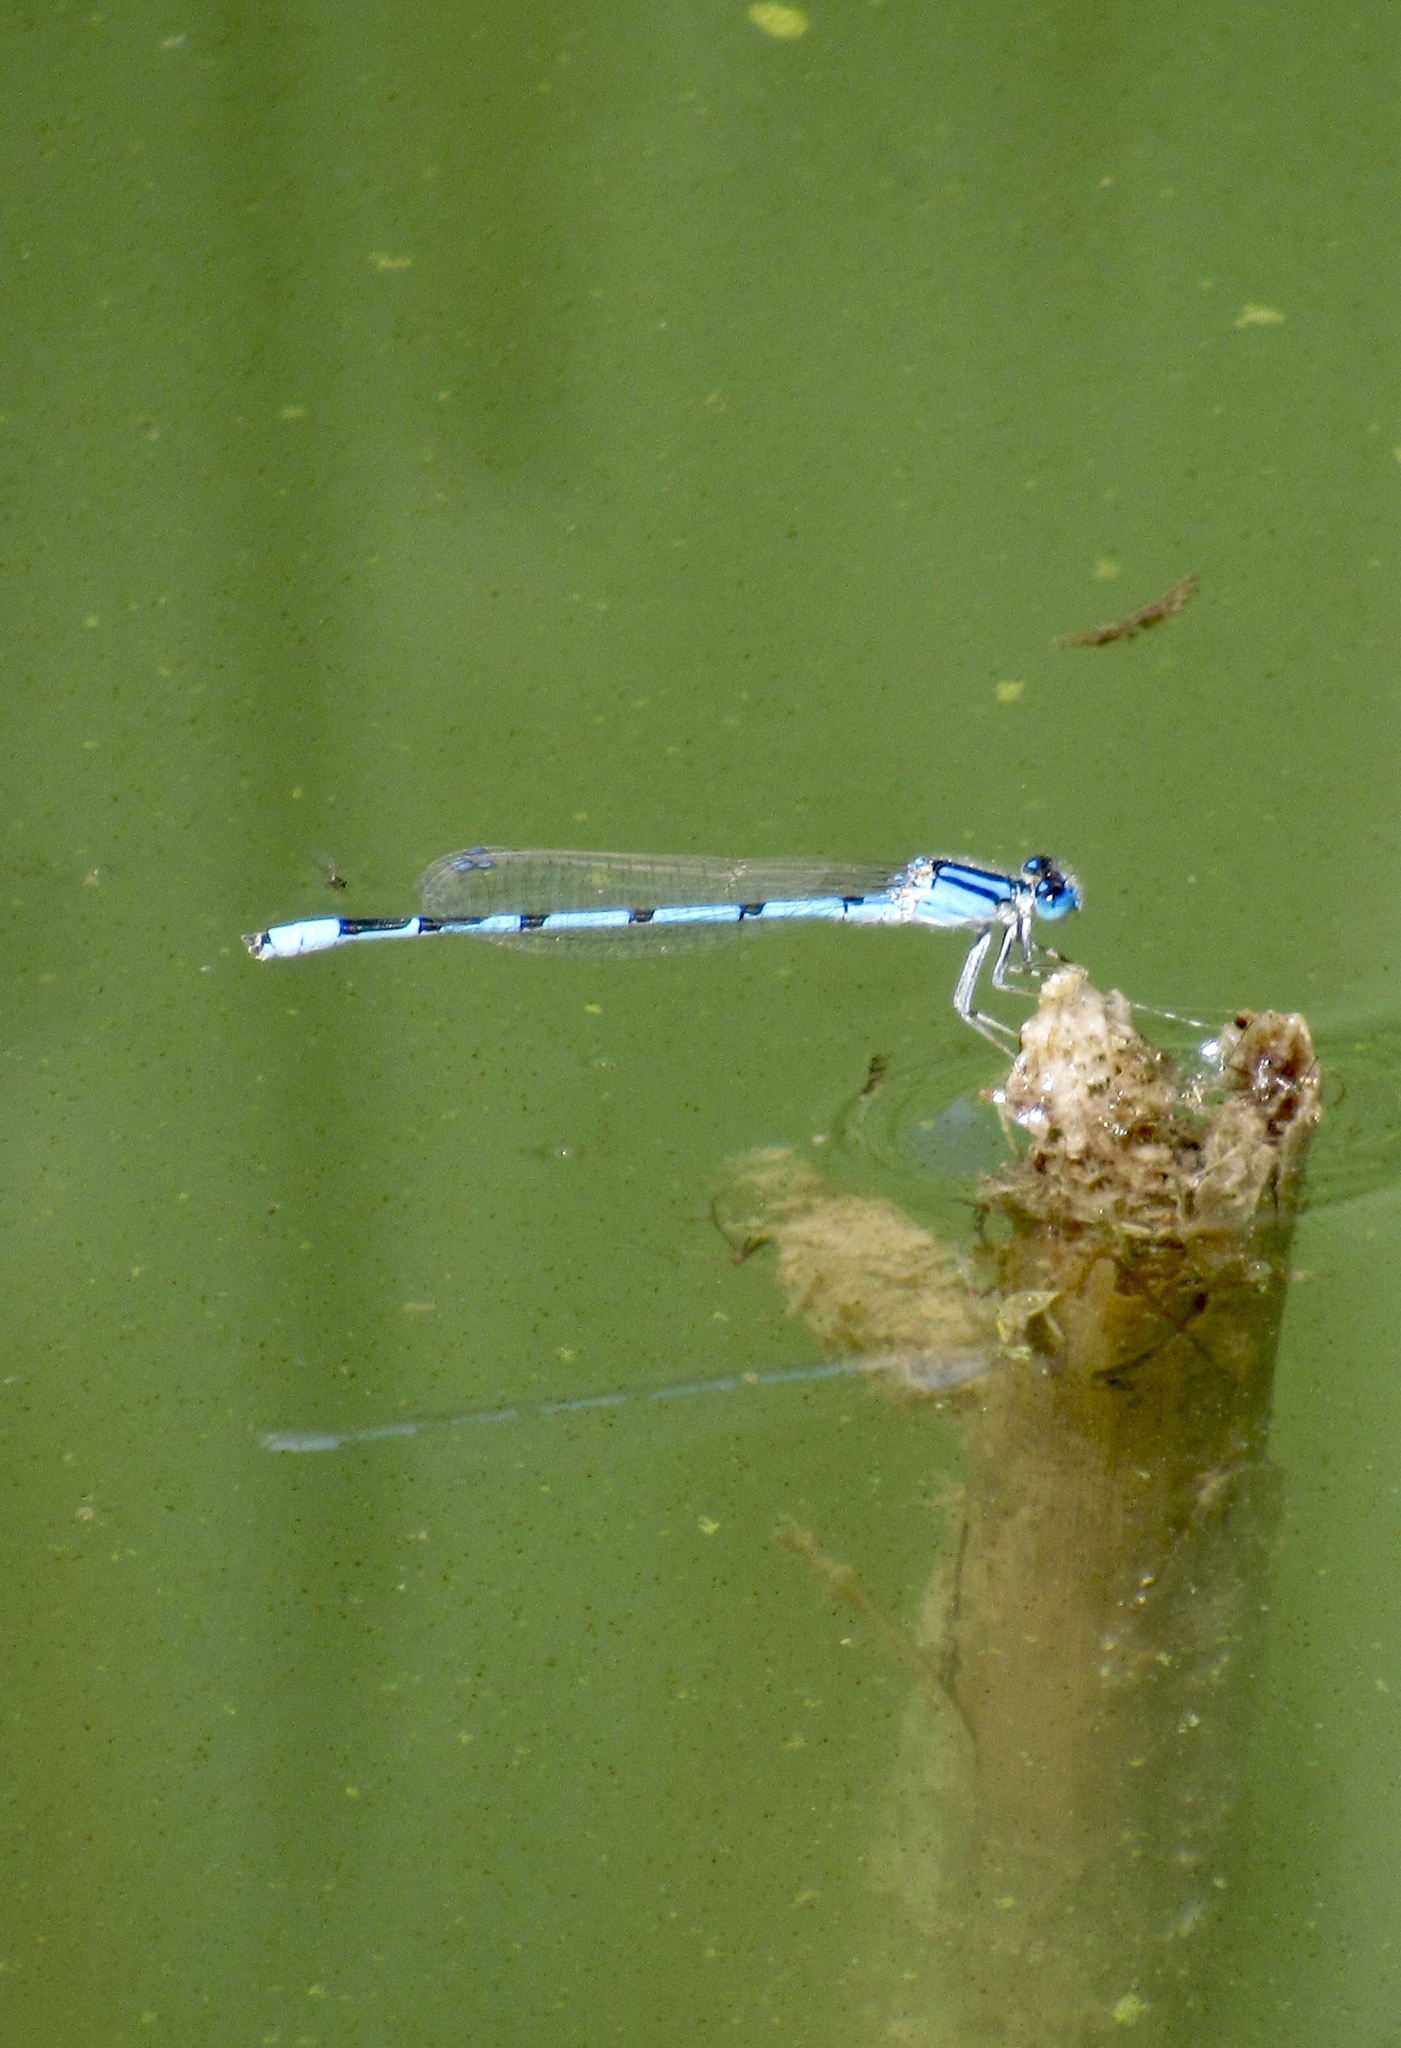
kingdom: Animalia
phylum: Arthropoda
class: Insecta
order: Odonata
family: Coenagrionidae
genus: Enallagma
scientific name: Enallagma civile
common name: Damselfly
